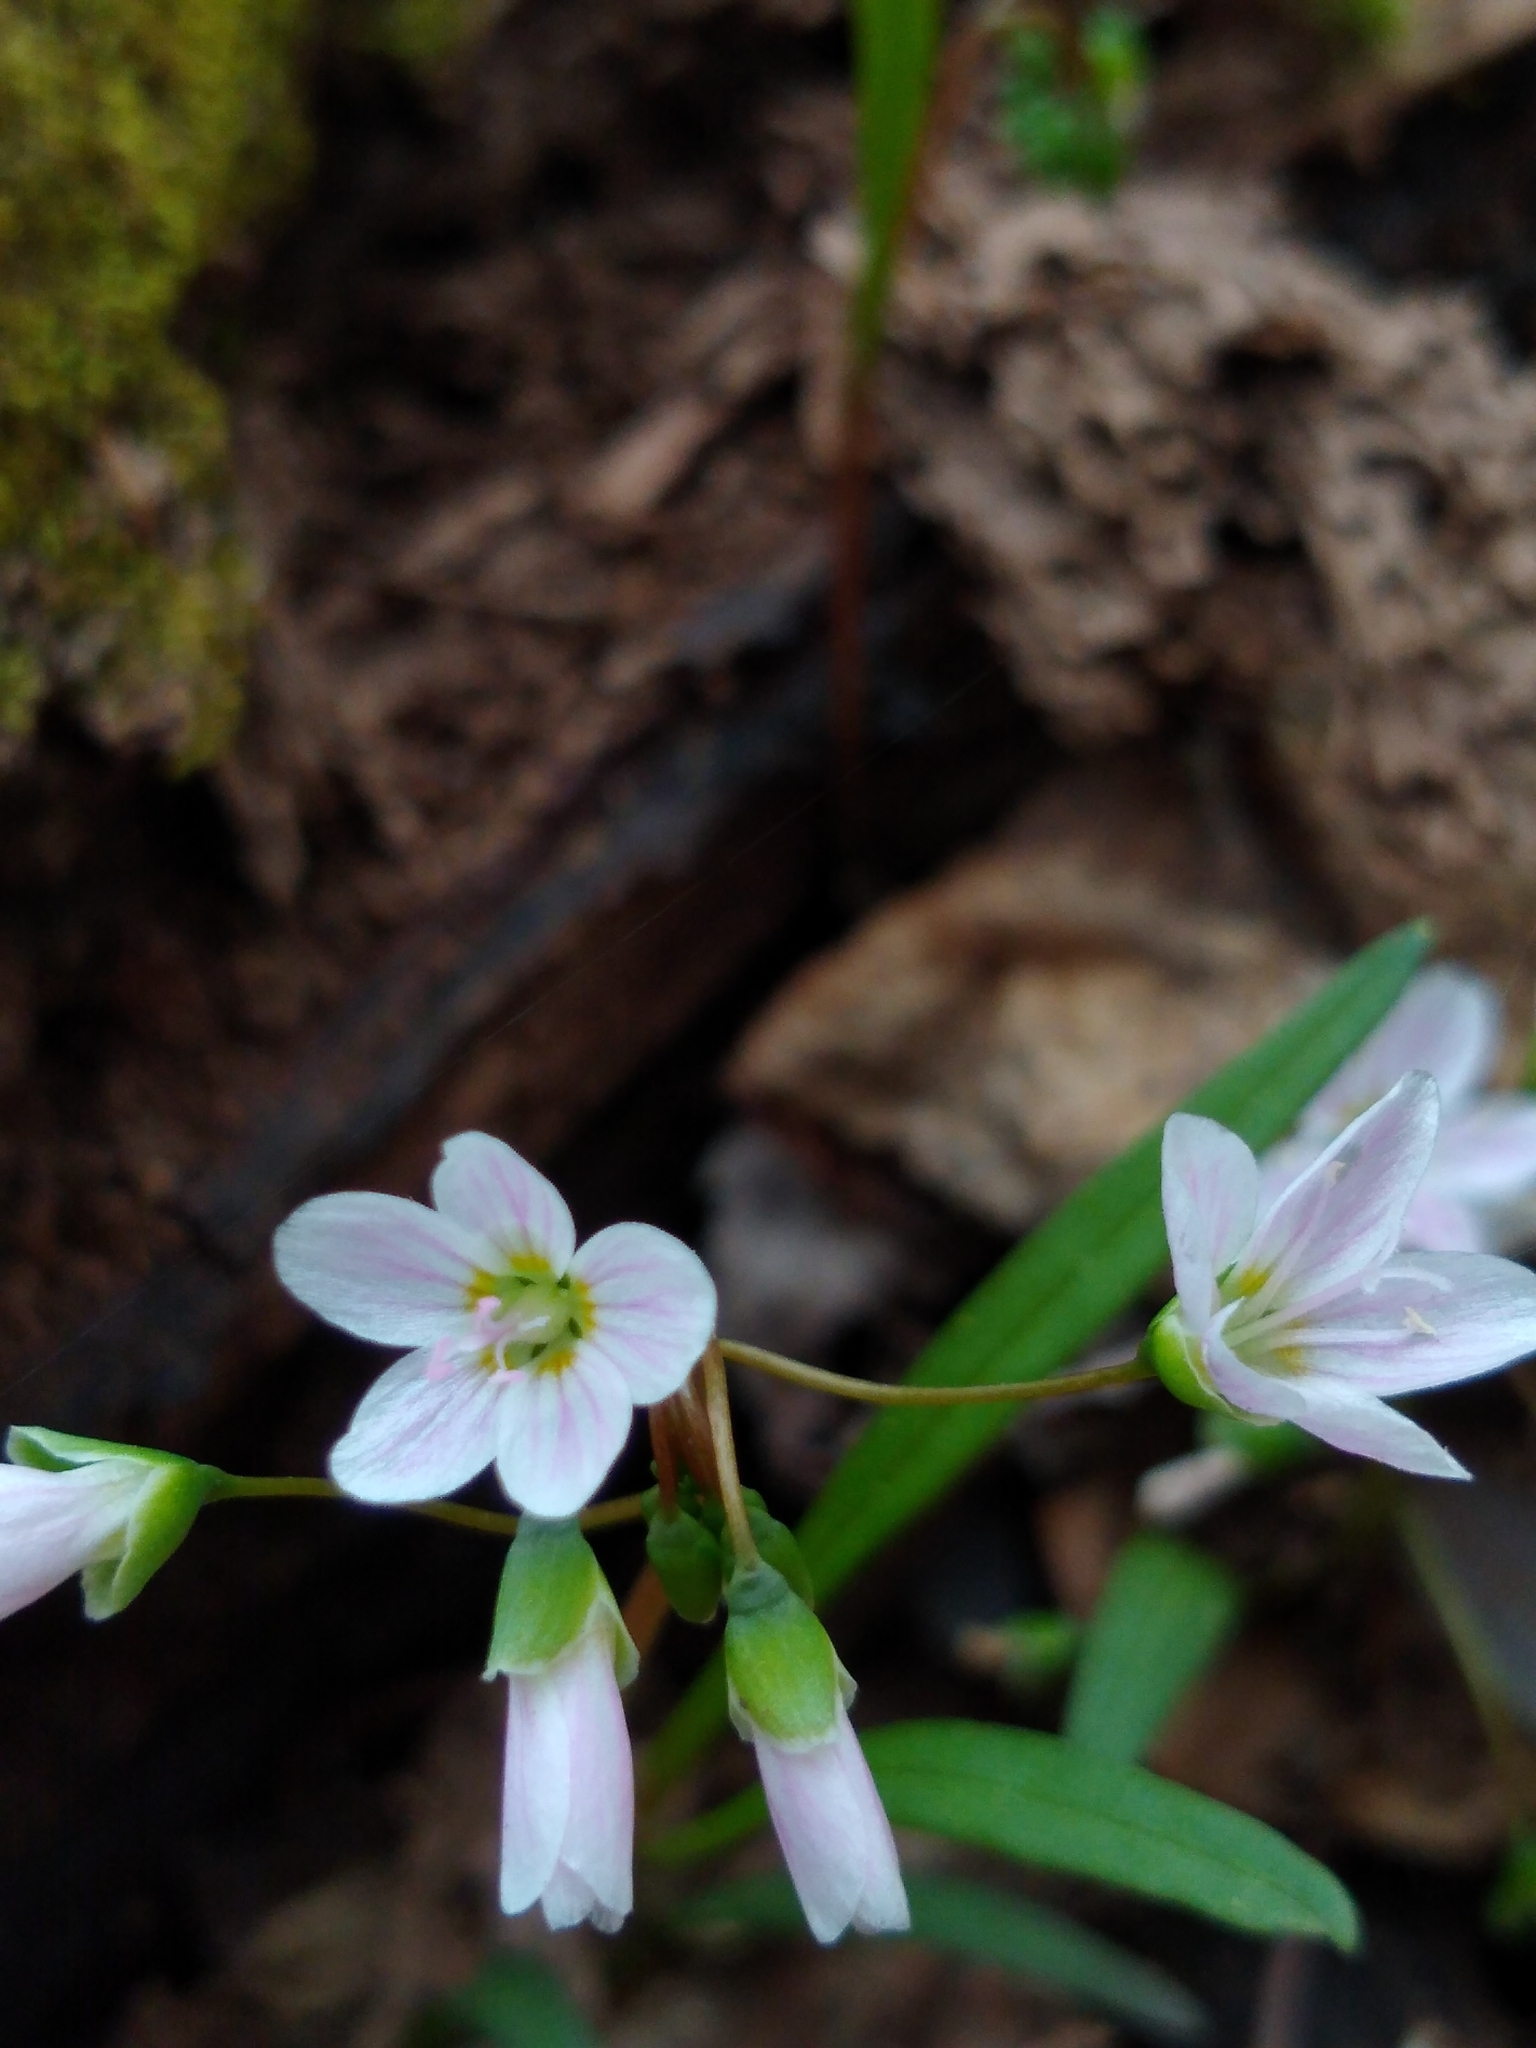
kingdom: Plantae
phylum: Tracheophyta
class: Magnoliopsida
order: Caryophyllales
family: Montiaceae
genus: Claytonia
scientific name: Claytonia virginica
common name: Virginia springbeauty
